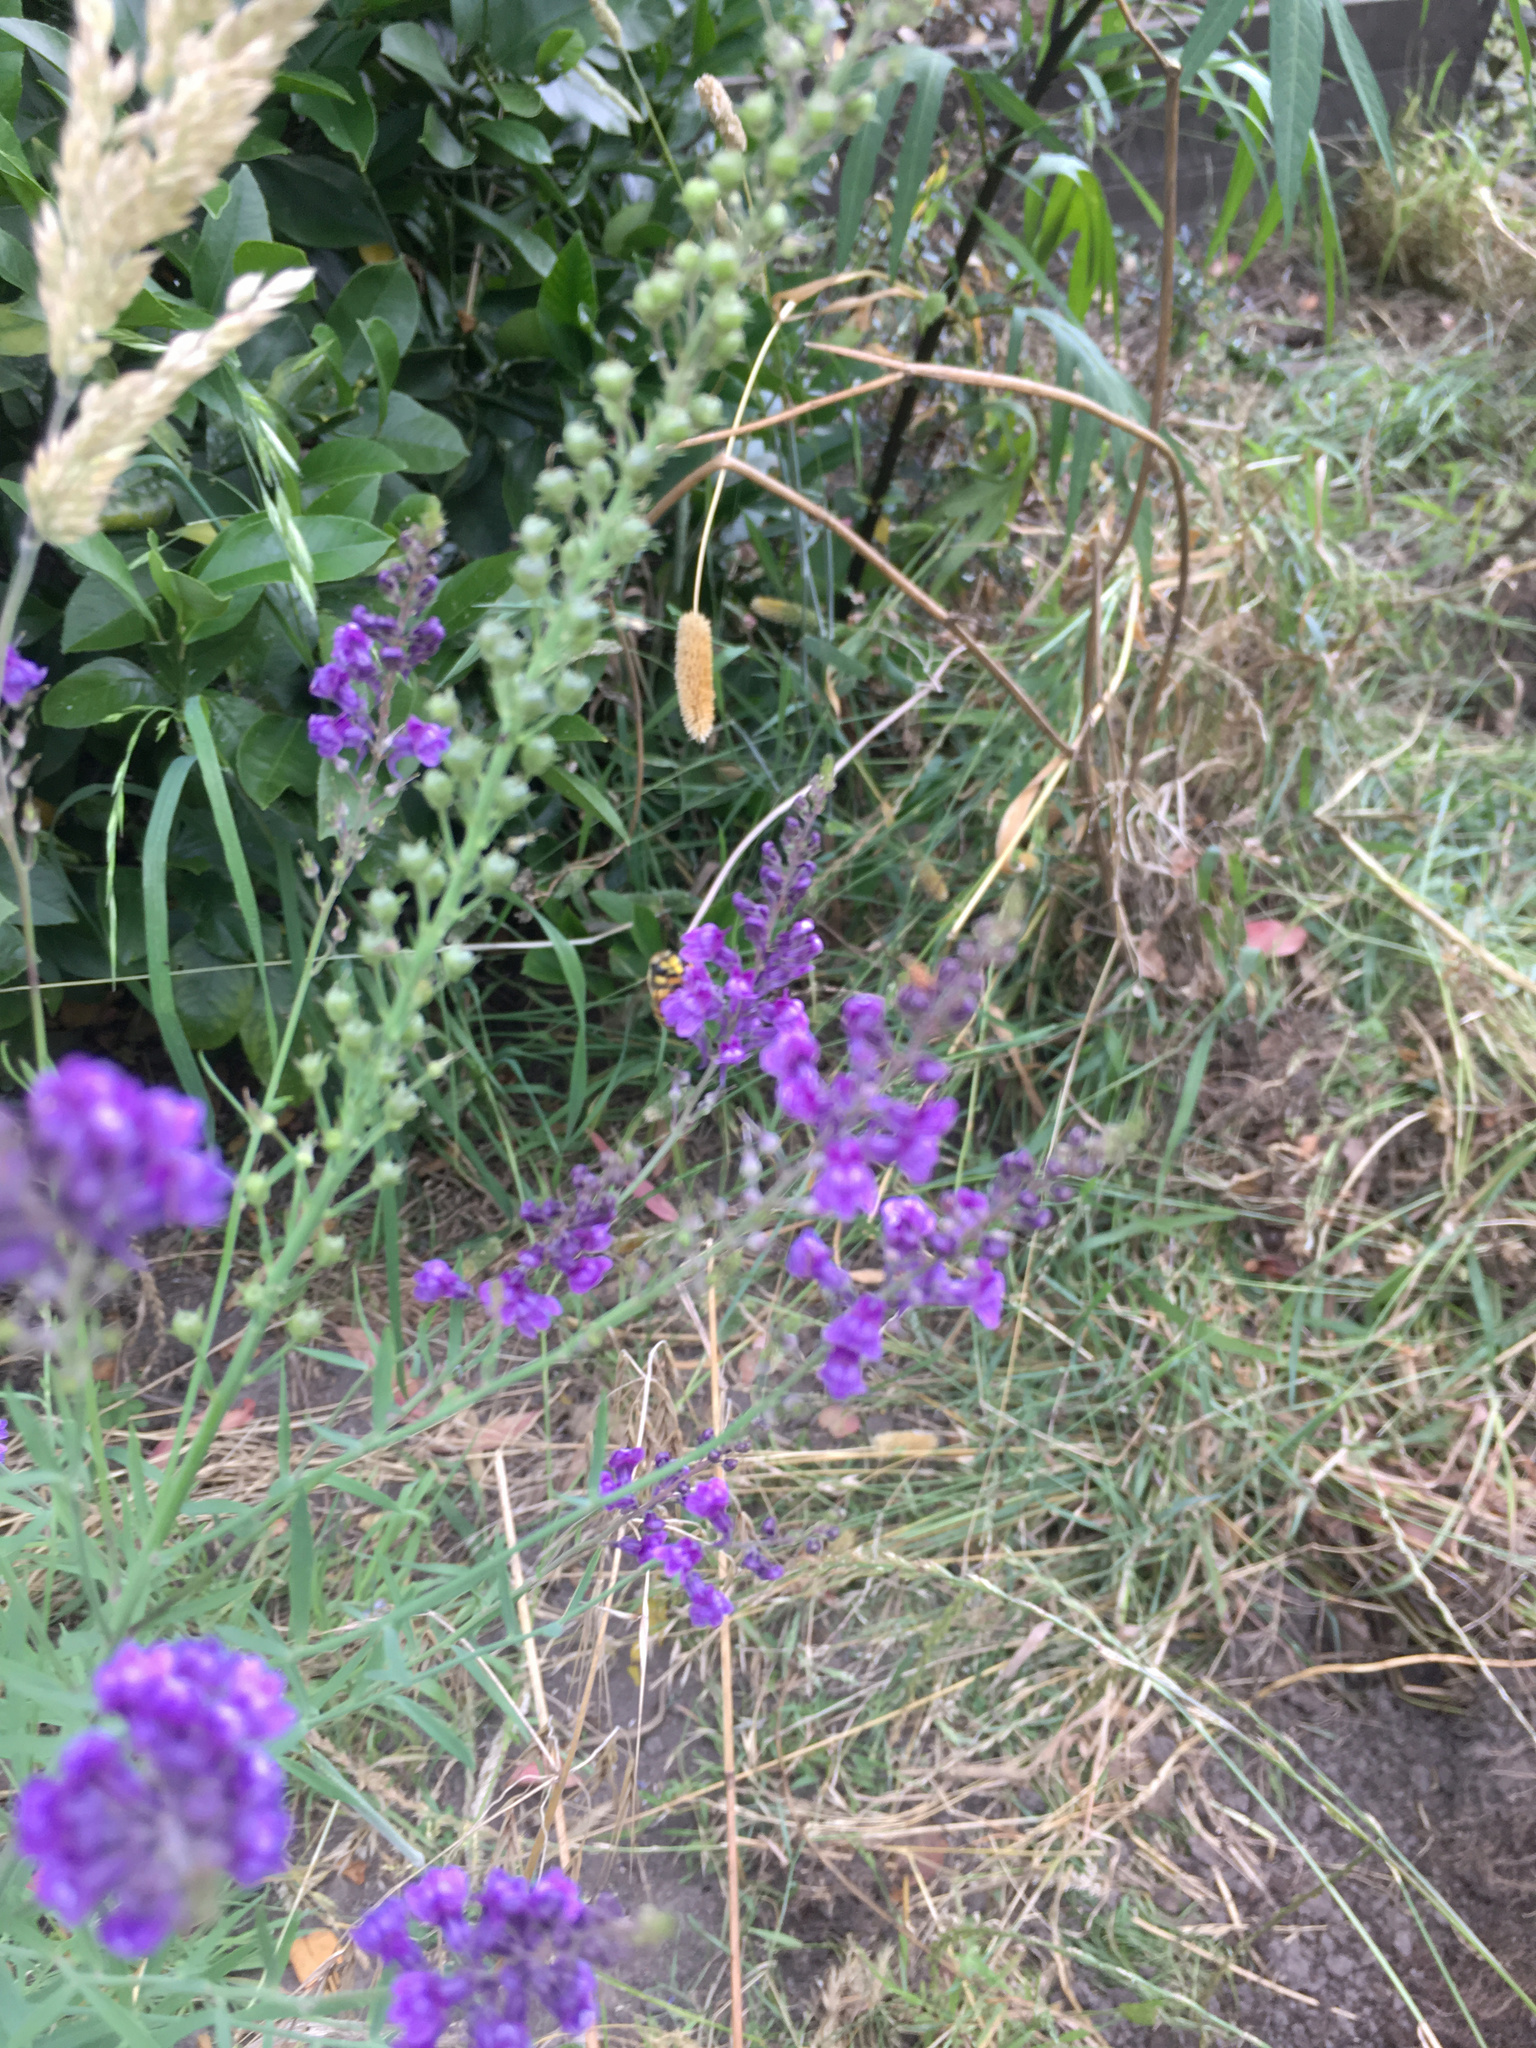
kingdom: Plantae
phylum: Tracheophyta
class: Magnoliopsida
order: Lamiales
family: Plantaginaceae
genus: Linaria
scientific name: Linaria purpurea
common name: Purple toadflax
